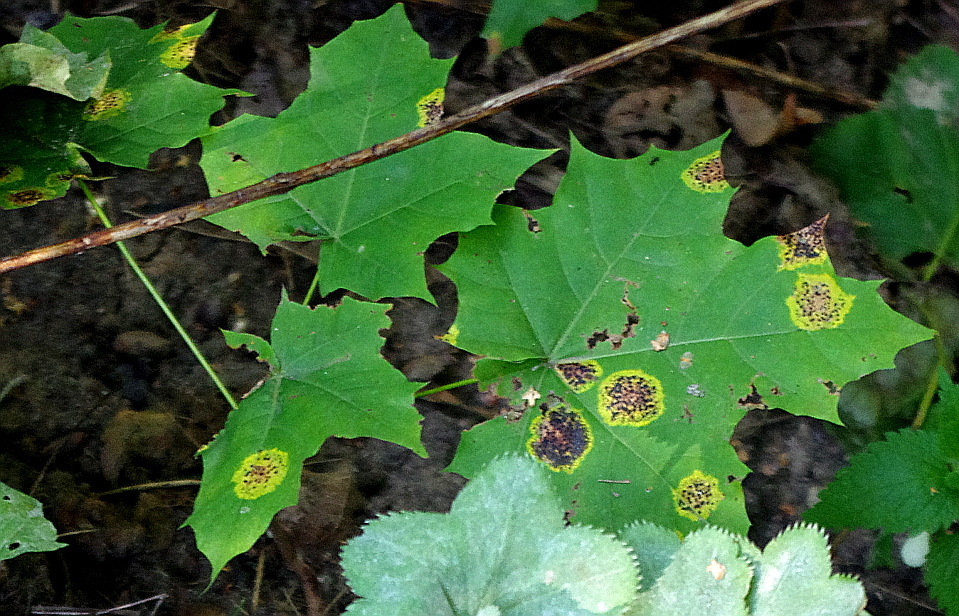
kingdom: Fungi
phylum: Ascomycota
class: Leotiomycetes
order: Rhytismatales
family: Rhytismataceae
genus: Rhytisma
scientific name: Rhytisma acerinum
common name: European tar spot
